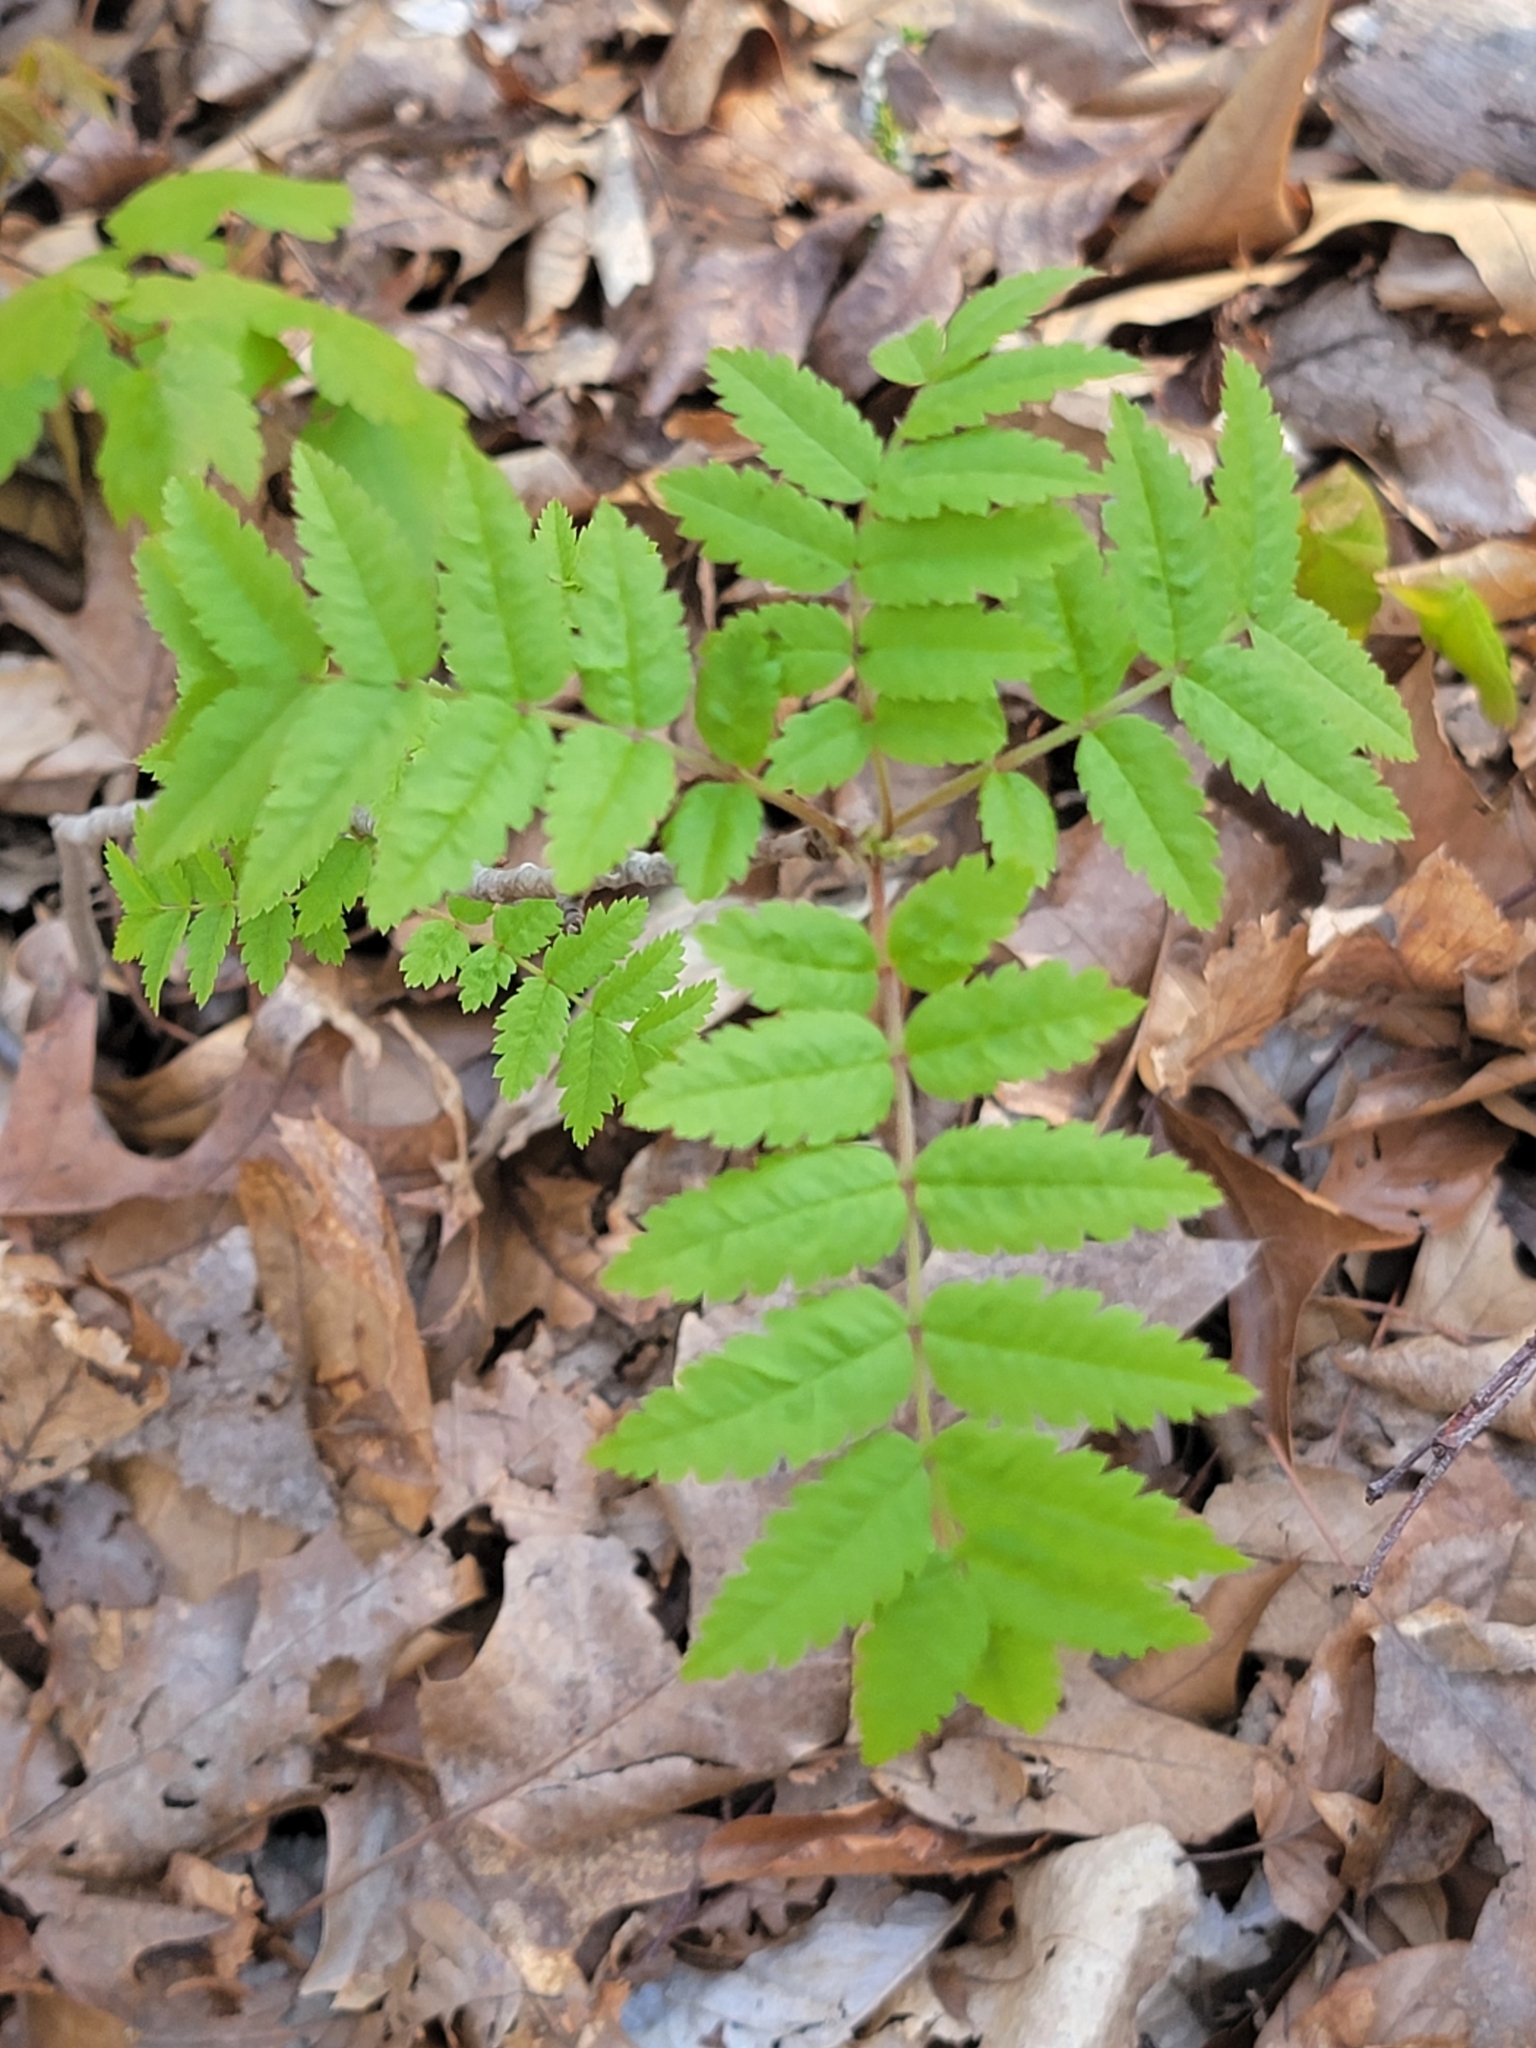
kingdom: Plantae
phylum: Tracheophyta
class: Magnoliopsida
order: Sapindales
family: Anacardiaceae
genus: Rhus
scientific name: Rhus typhina
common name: Staghorn sumac
